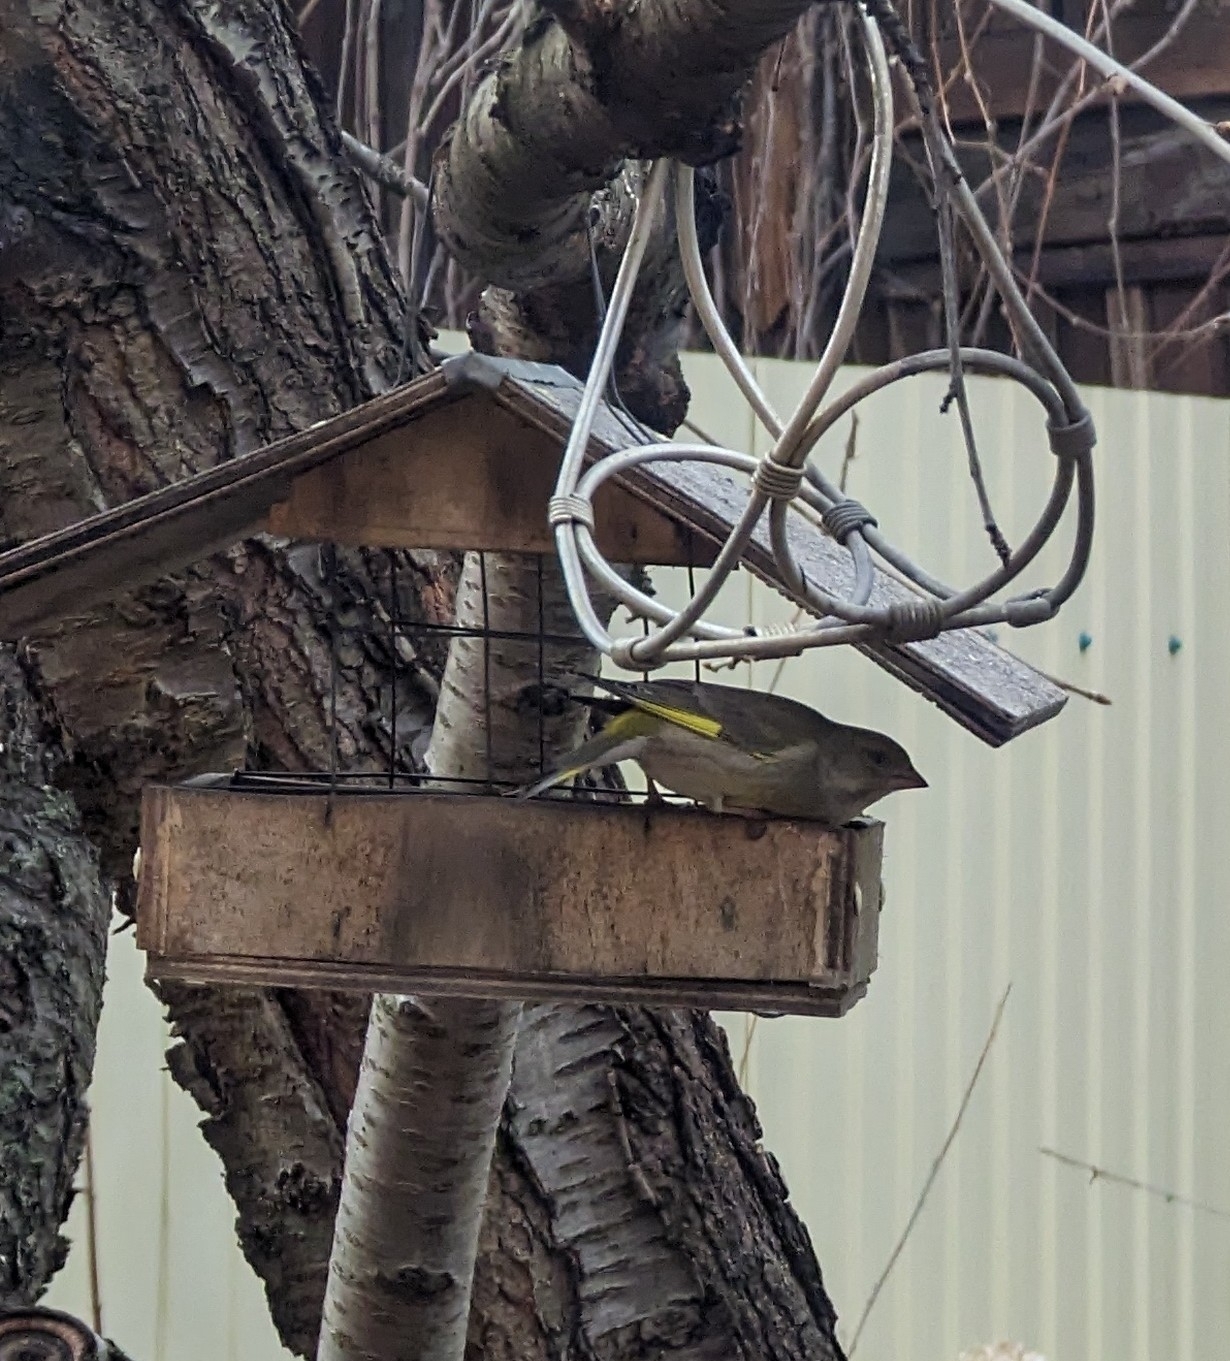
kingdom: Plantae
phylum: Tracheophyta
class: Liliopsida
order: Poales
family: Poaceae
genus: Chloris
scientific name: Chloris chloris
